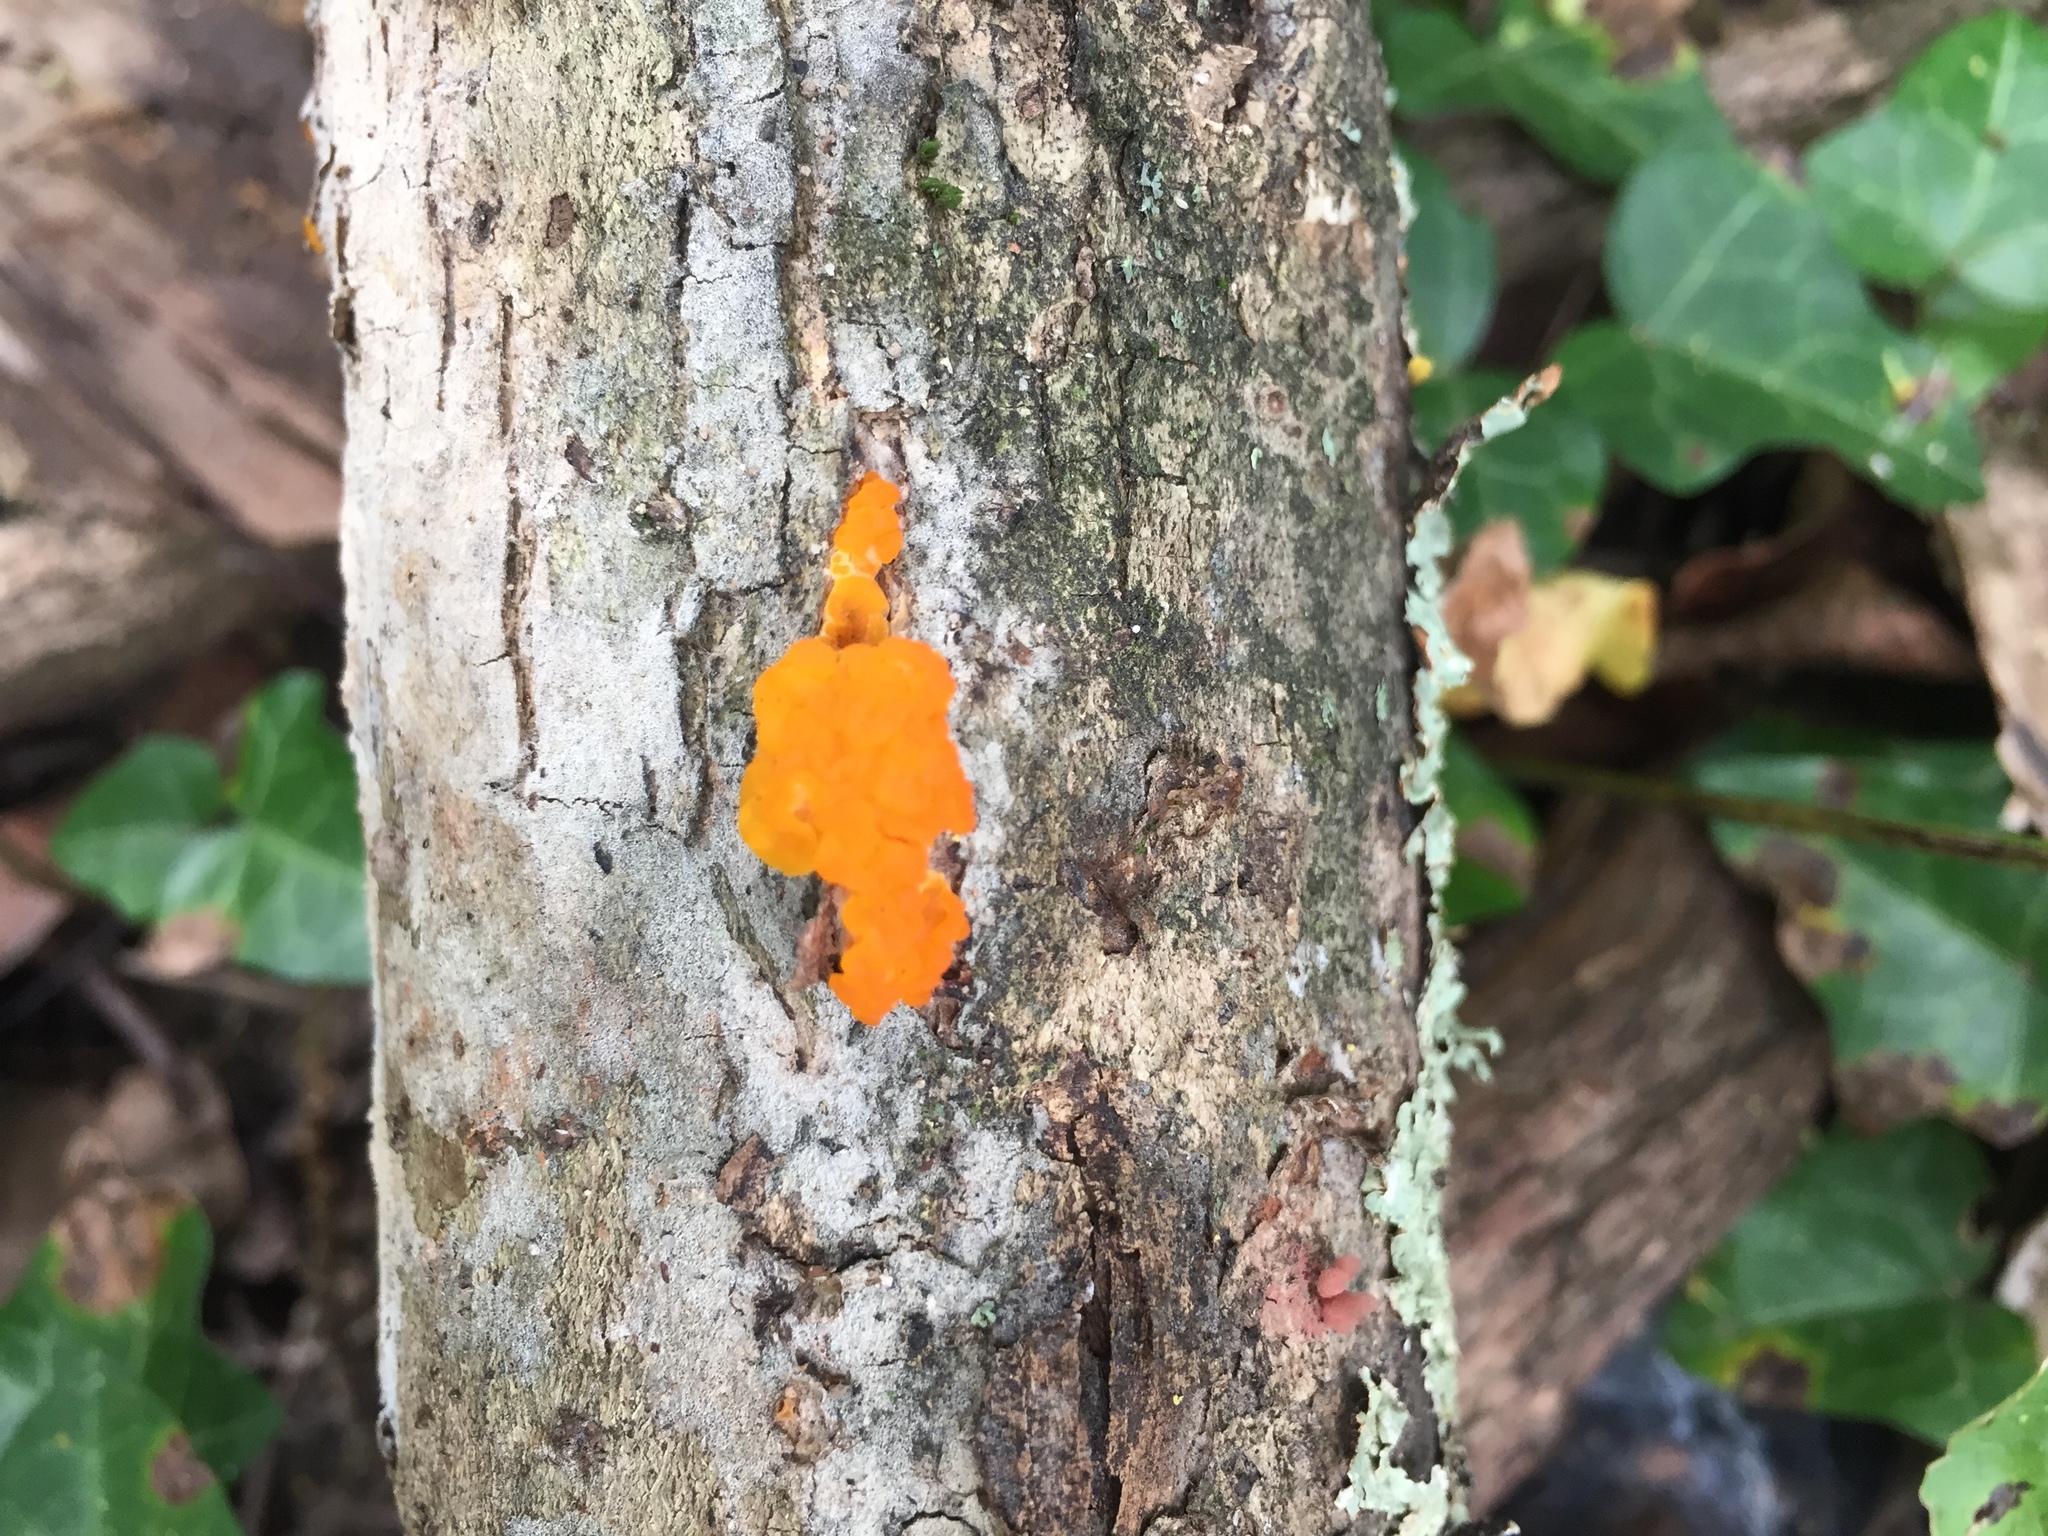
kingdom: Fungi
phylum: Basidiomycota
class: Dacrymycetes
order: Dacrymycetales
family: Dacrymycetaceae
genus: Dacrymyces
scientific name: Dacrymyces stillatus
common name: Common jelly spot
